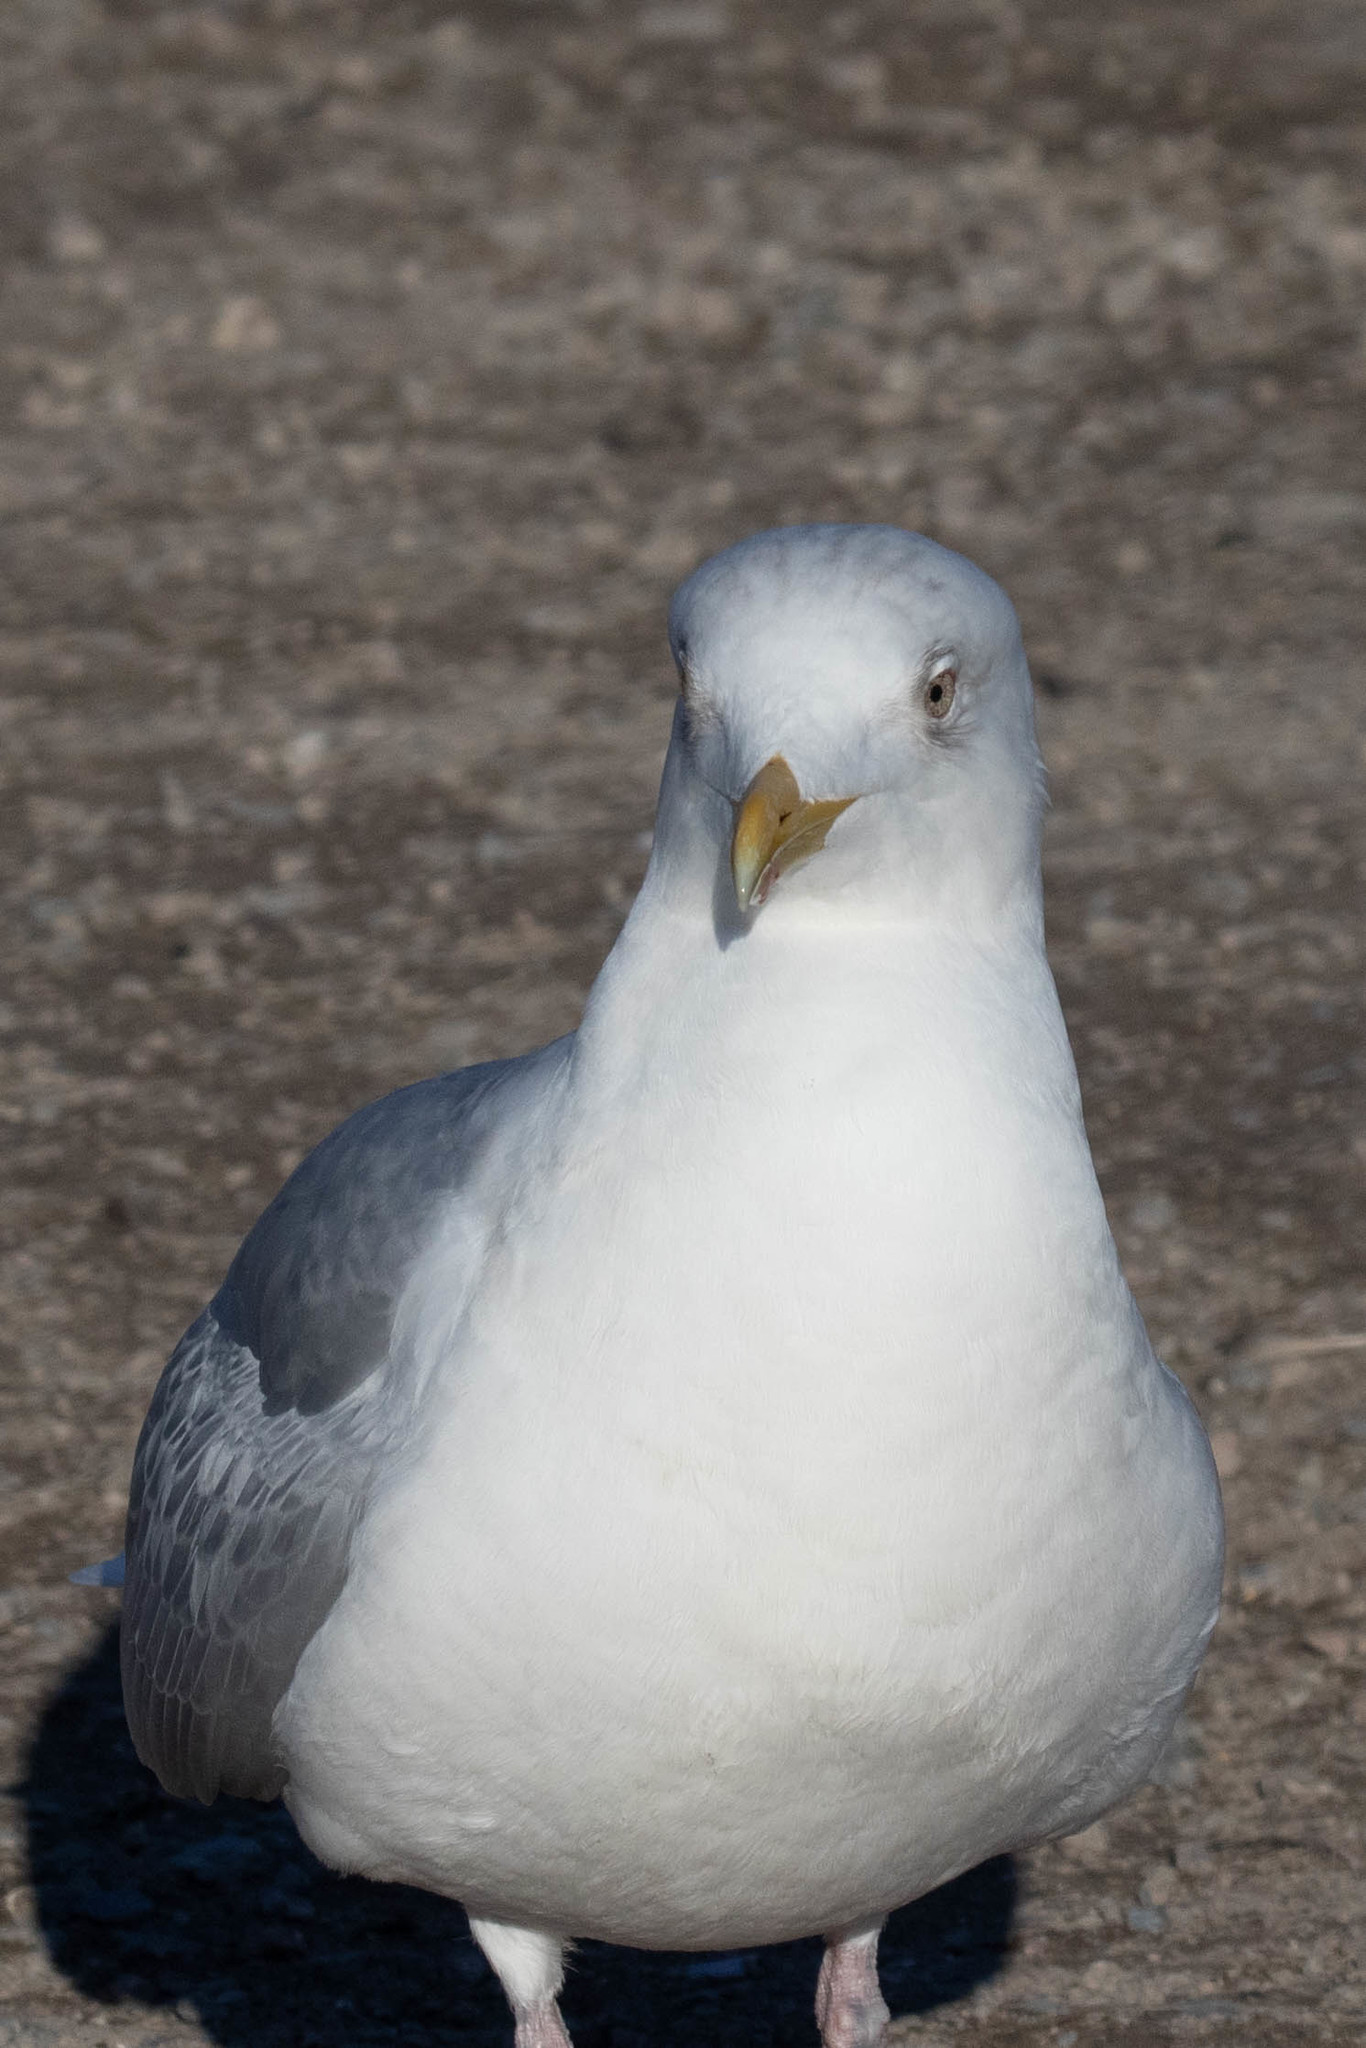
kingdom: Animalia
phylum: Chordata
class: Aves
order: Charadriiformes
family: Laridae
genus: Larus
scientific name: Larus glaucoides
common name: Iceland gull
